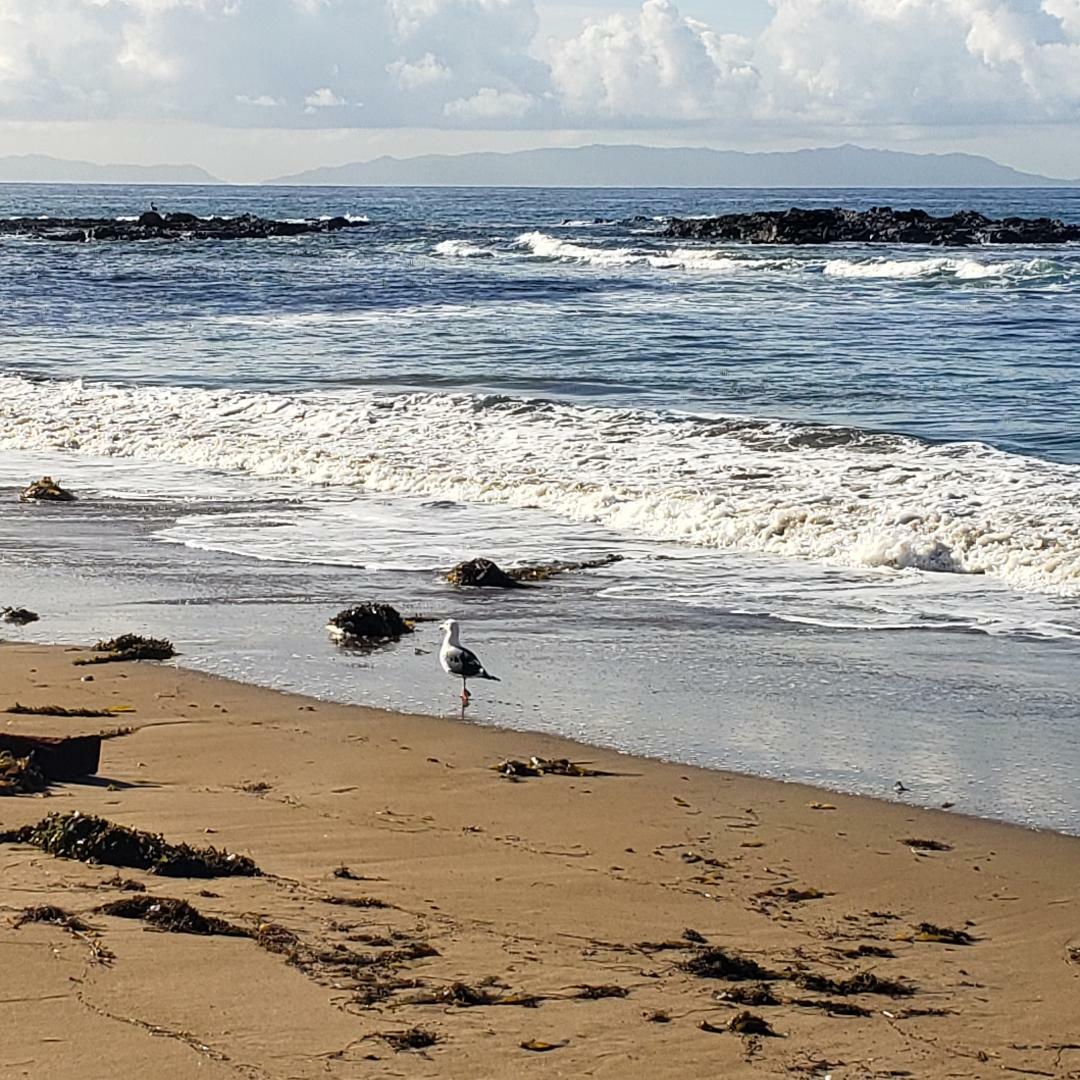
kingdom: Animalia
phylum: Chordata
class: Aves
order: Charadriiformes
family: Laridae
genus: Larus
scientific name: Larus occidentalis
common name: Western gull
